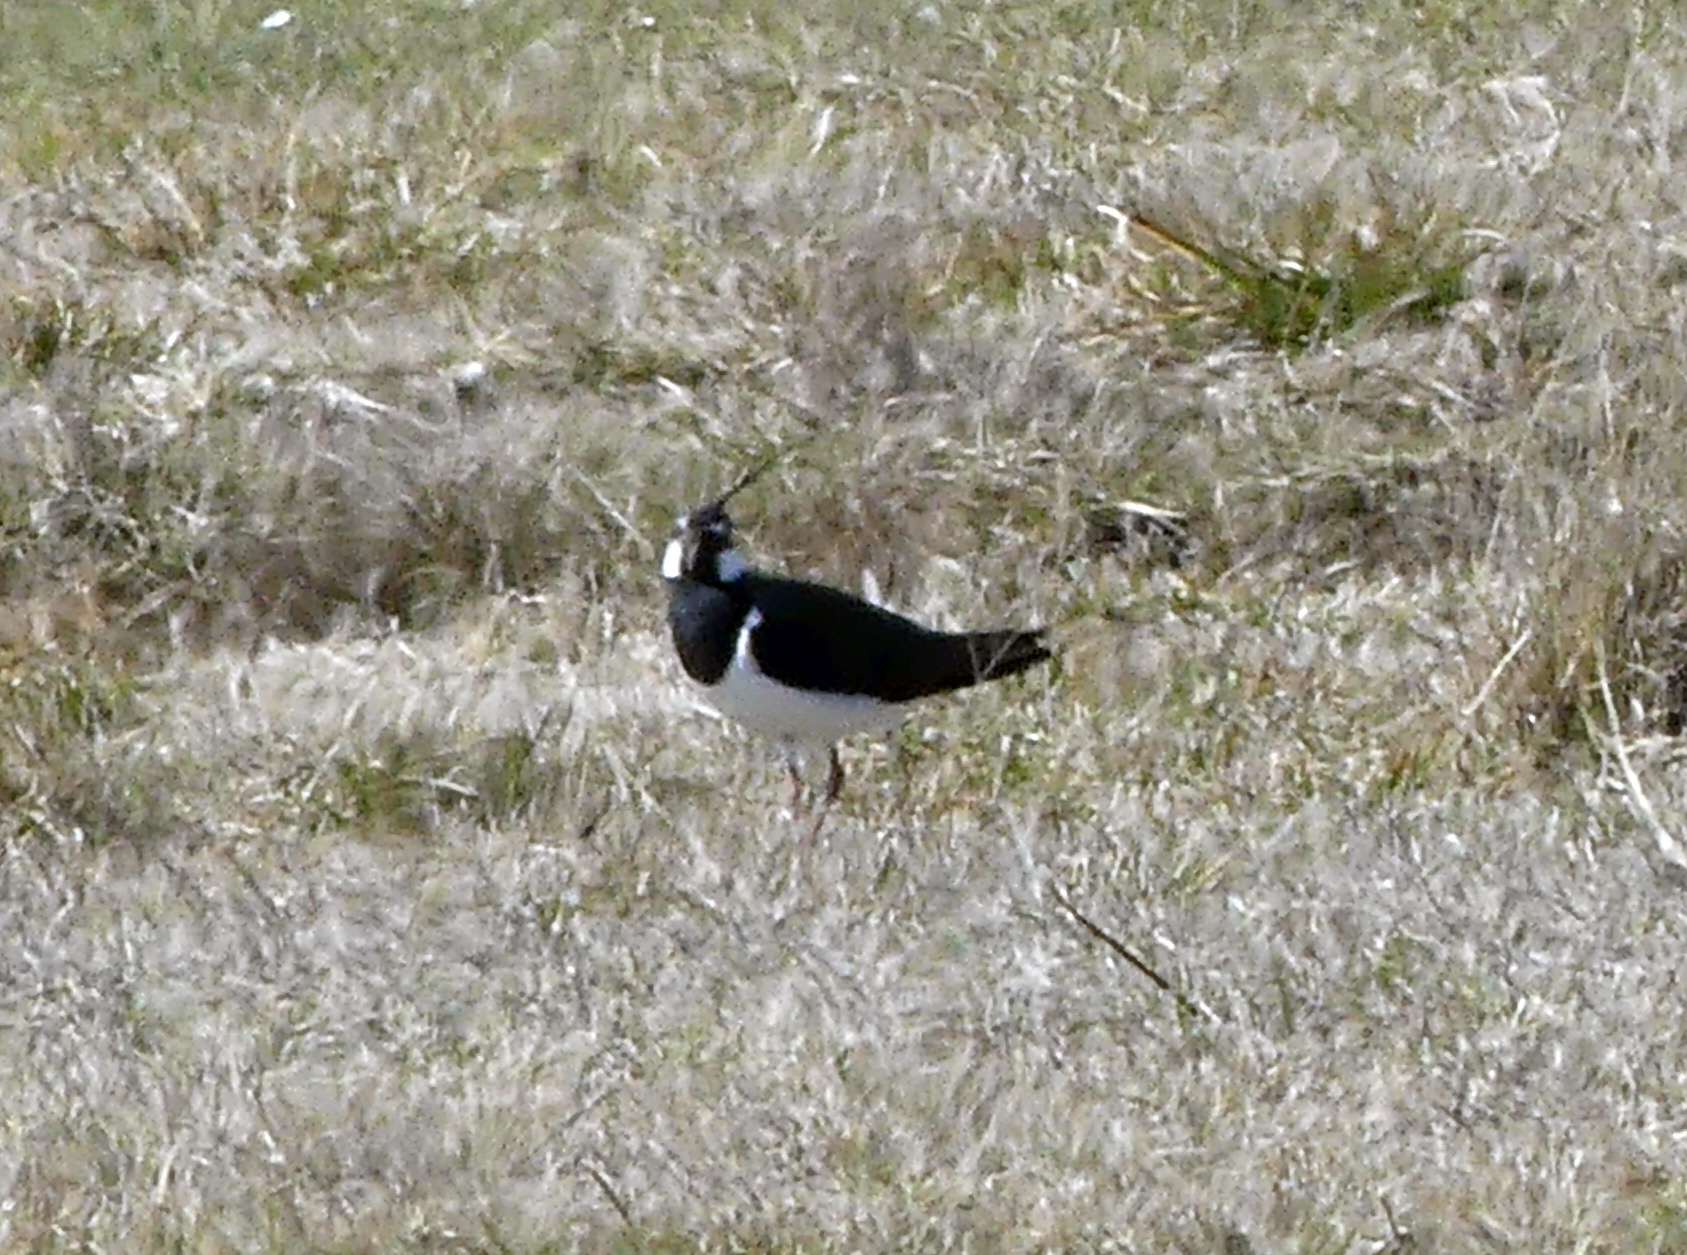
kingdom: Animalia
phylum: Chordata
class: Aves
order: Charadriiformes
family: Charadriidae
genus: Vanellus
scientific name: Vanellus vanellus
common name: Northern lapwing
